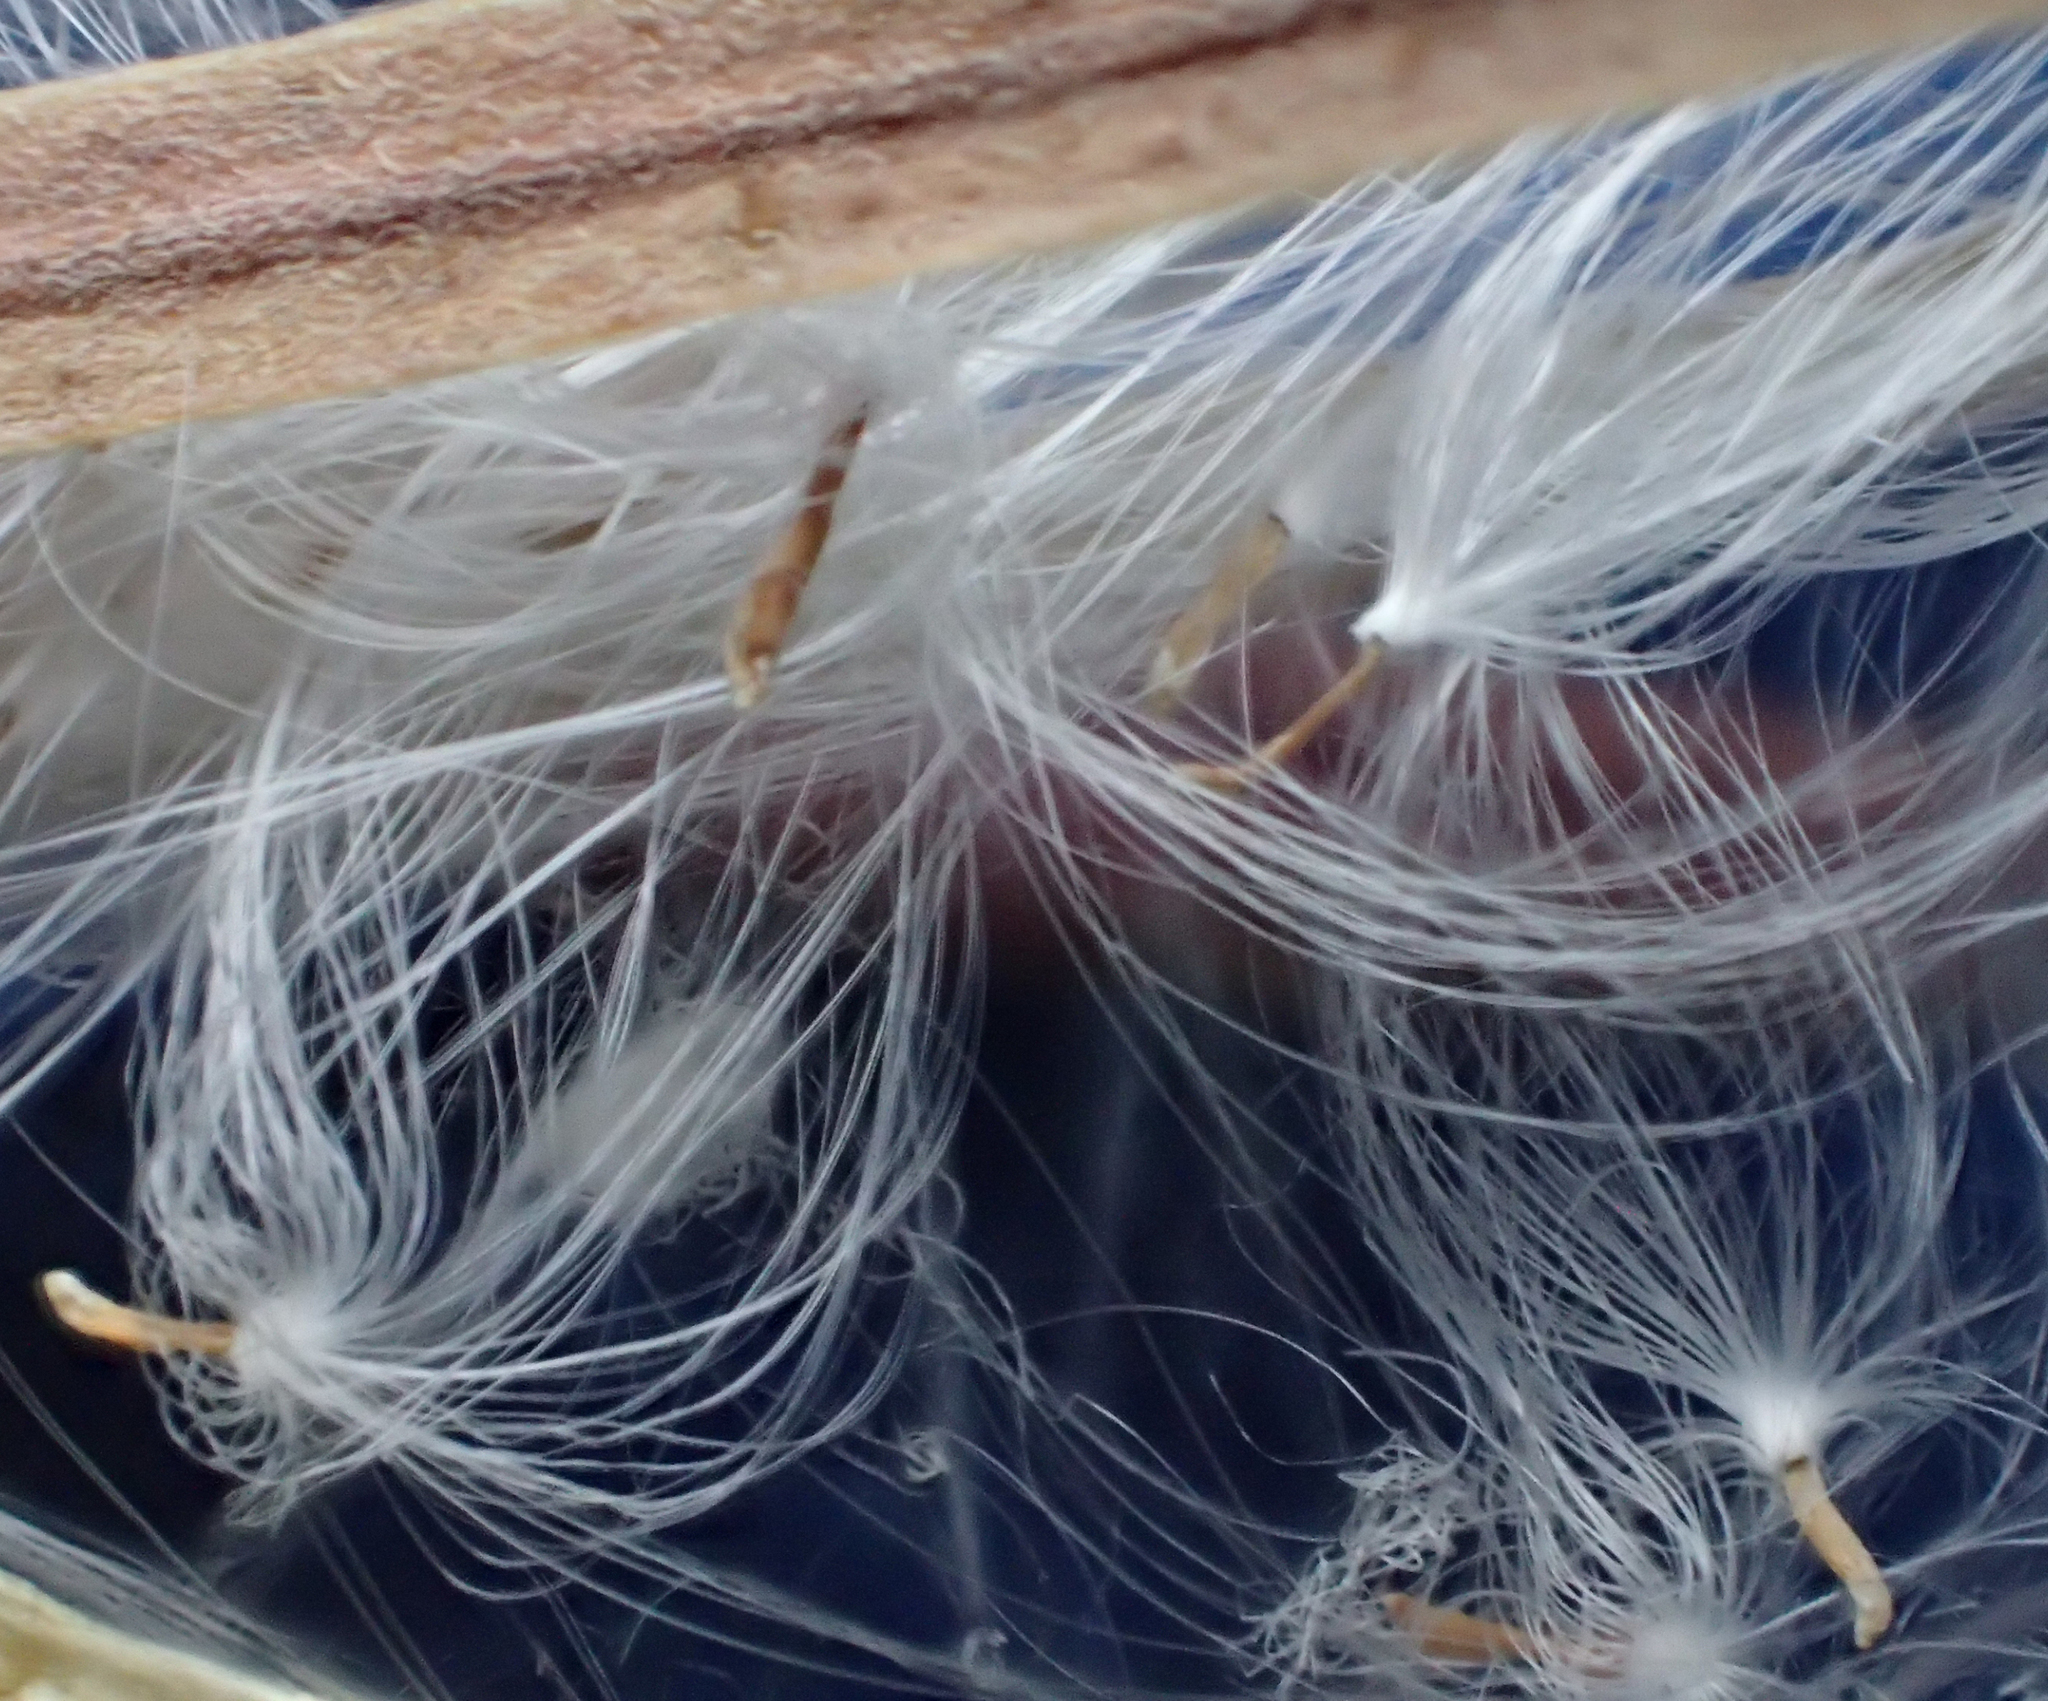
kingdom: Plantae
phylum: Tracheophyta
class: Magnoliopsida
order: Myrtales
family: Onagraceae
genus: Chamaenerion
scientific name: Chamaenerion latifolium
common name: Dwarf fireweed
